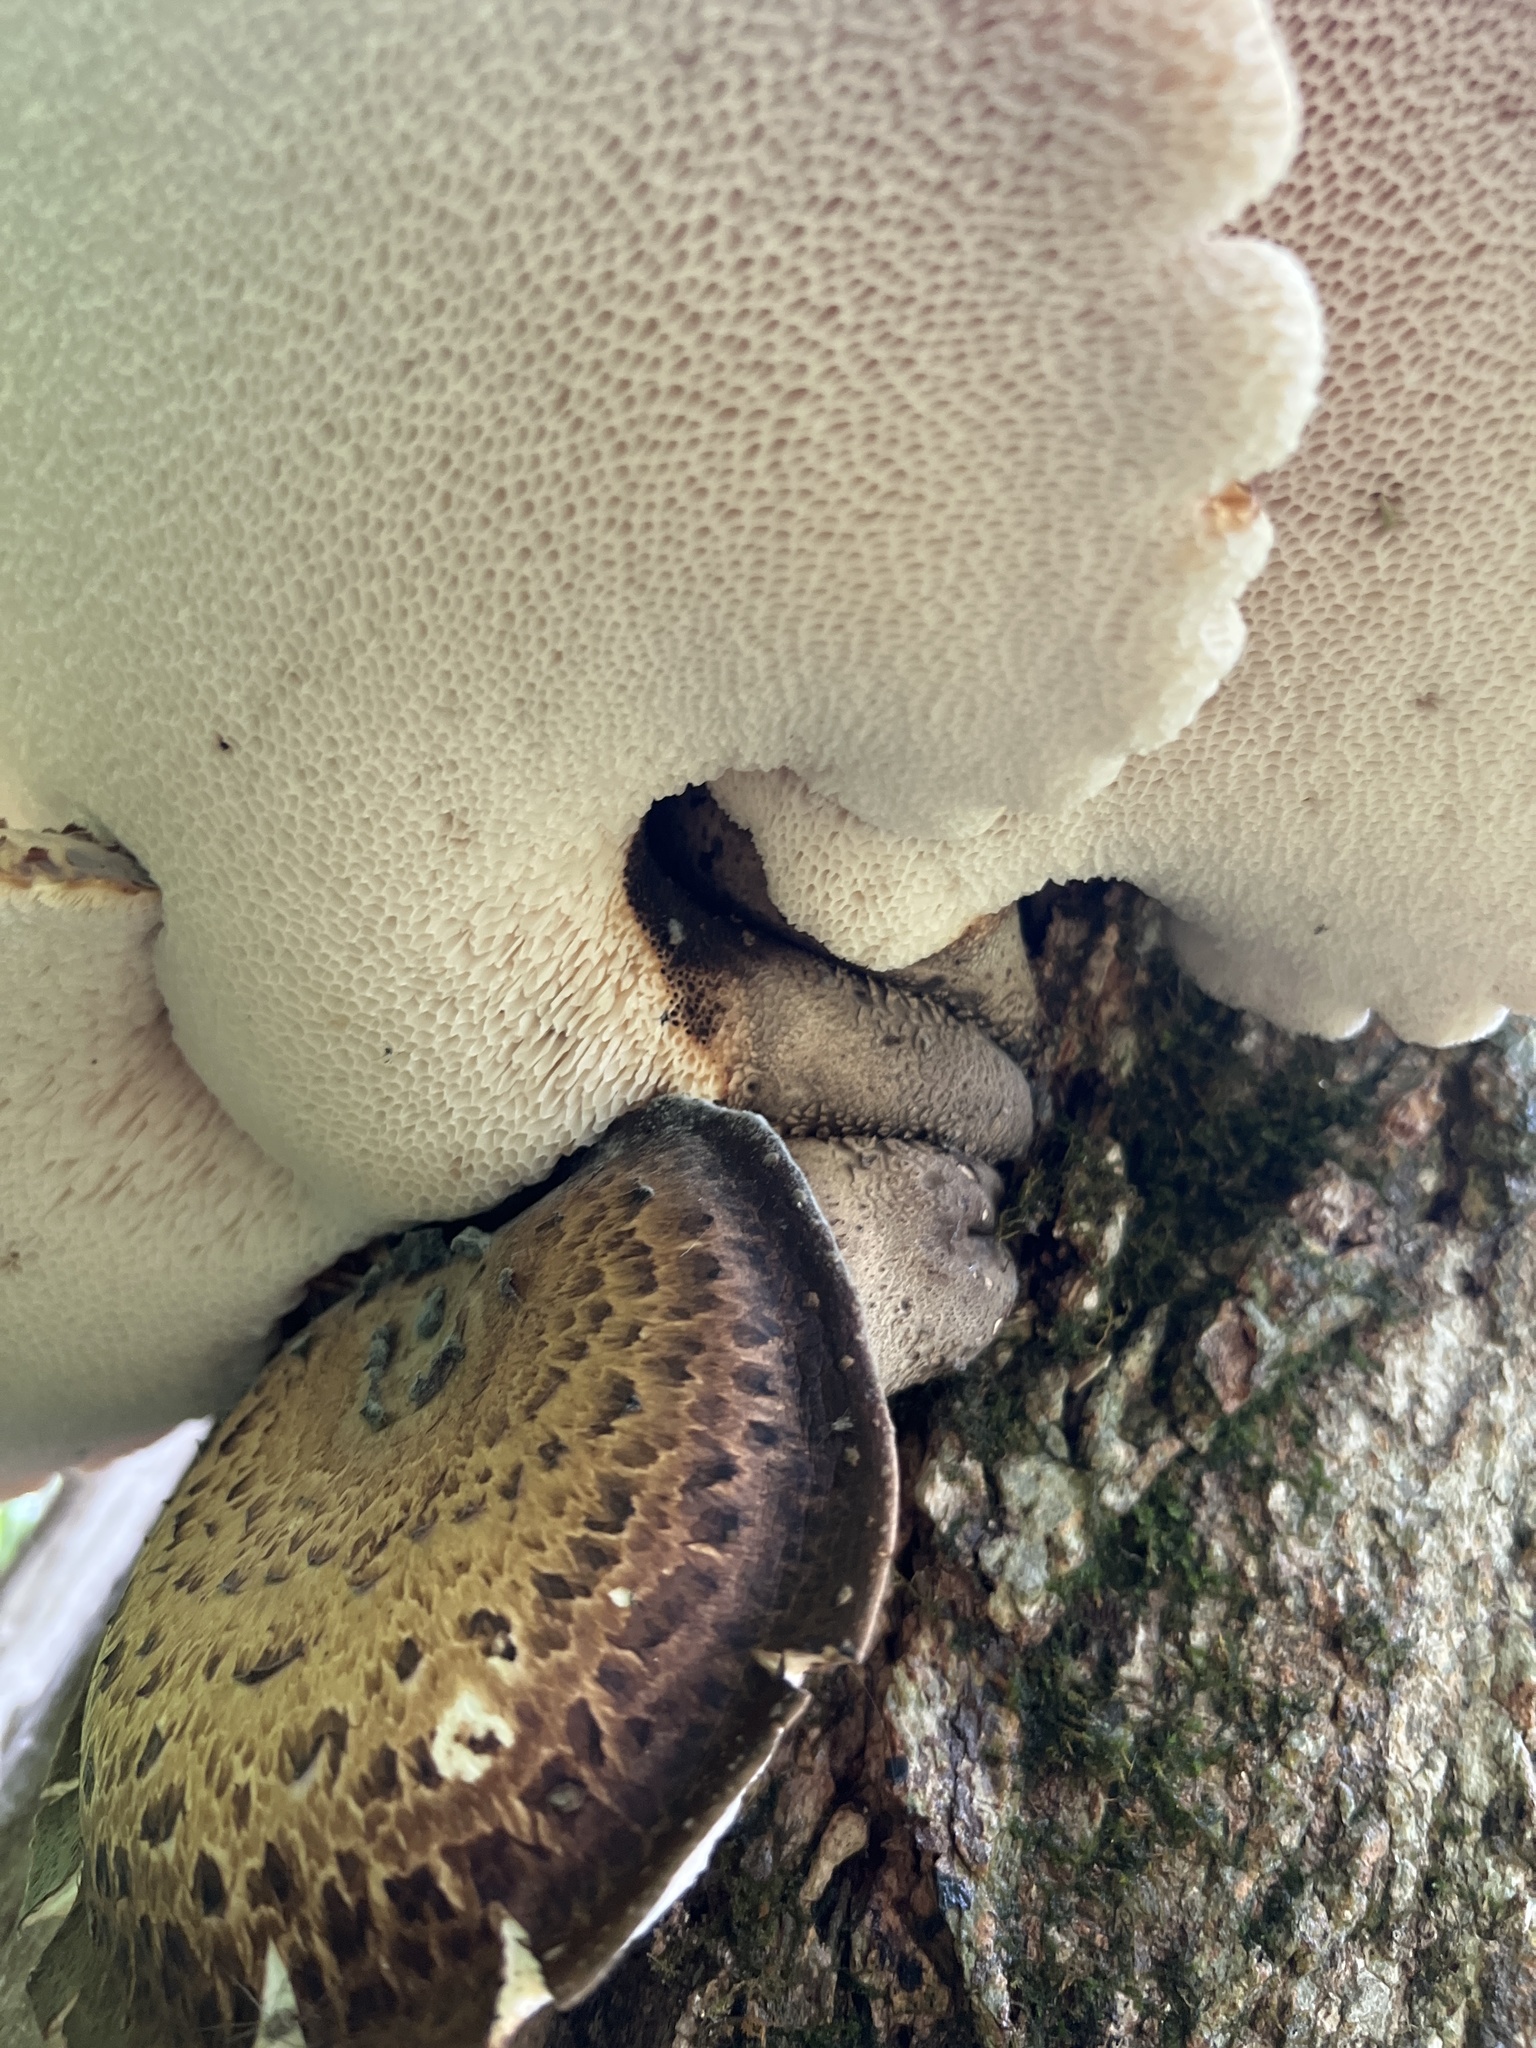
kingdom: Fungi
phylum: Basidiomycota
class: Agaricomycetes
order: Polyporales
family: Polyporaceae
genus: Cerioporus
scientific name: Cerioporus squamosus
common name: Dryad's saddle
